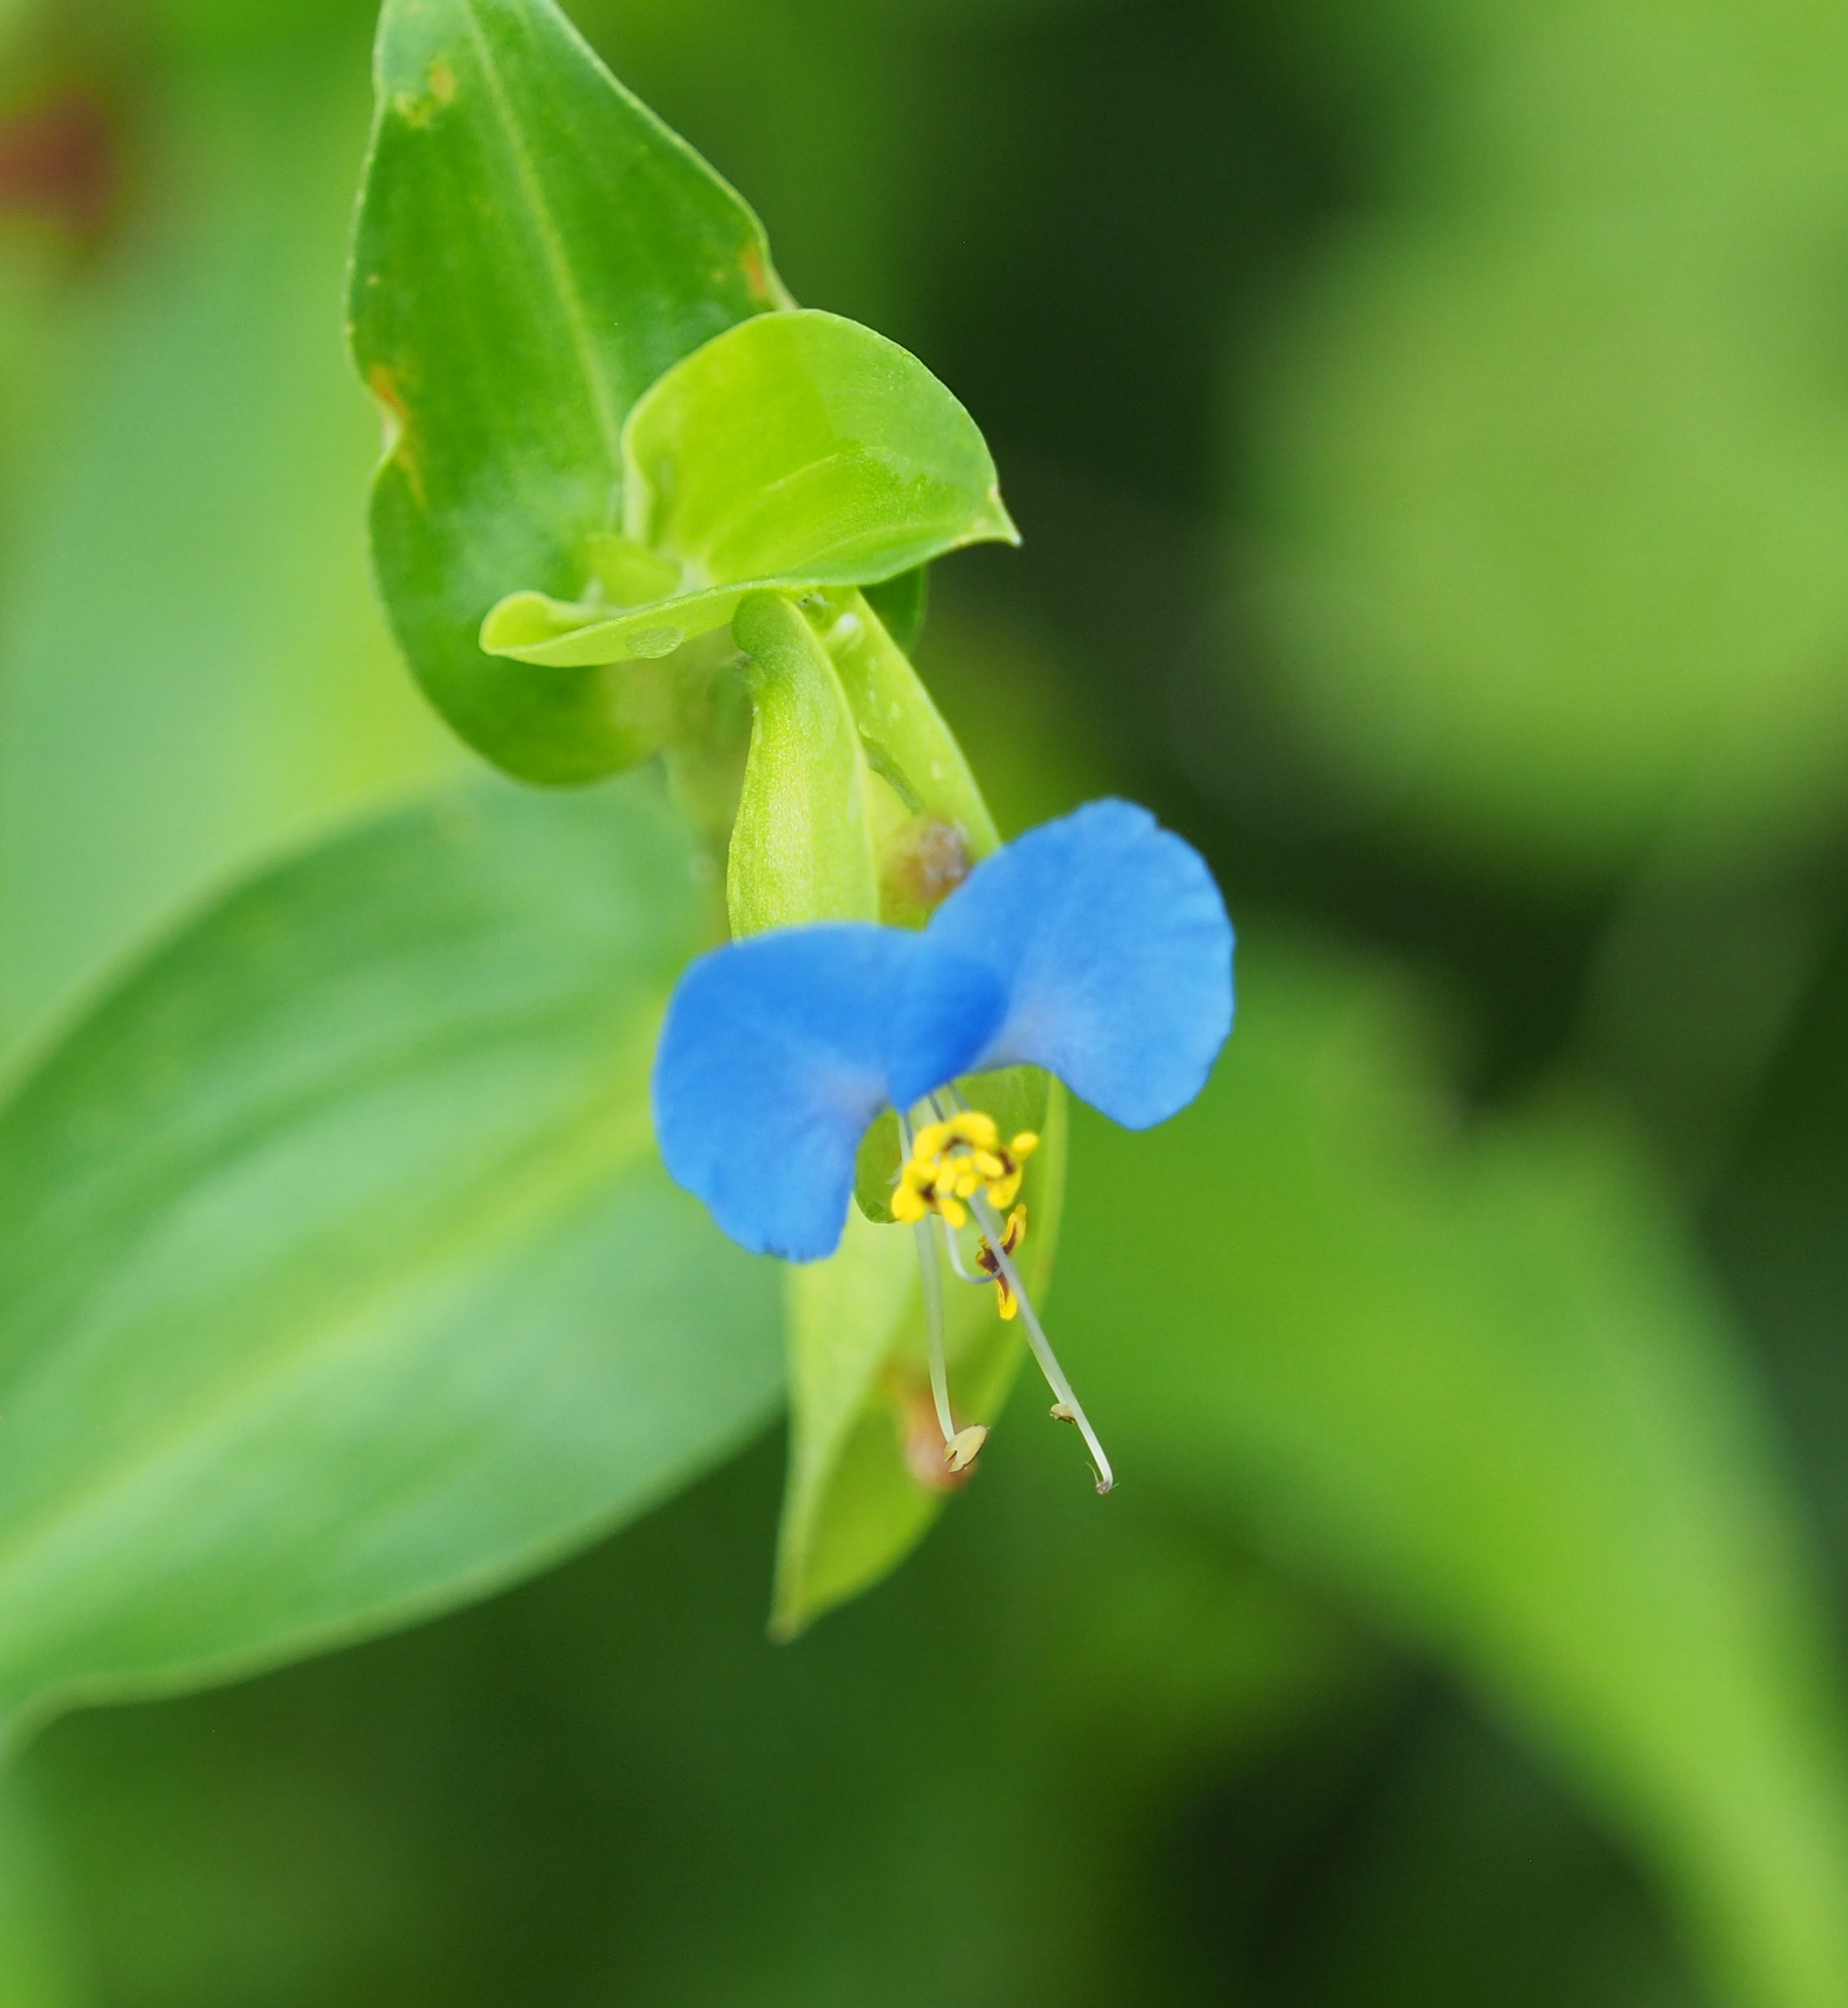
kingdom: Plantae
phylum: Tracheophyta
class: Liliopsida
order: Commelinales
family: Commelinaceae
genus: Commelina
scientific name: Commelina communis
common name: Asiatic dayflower
